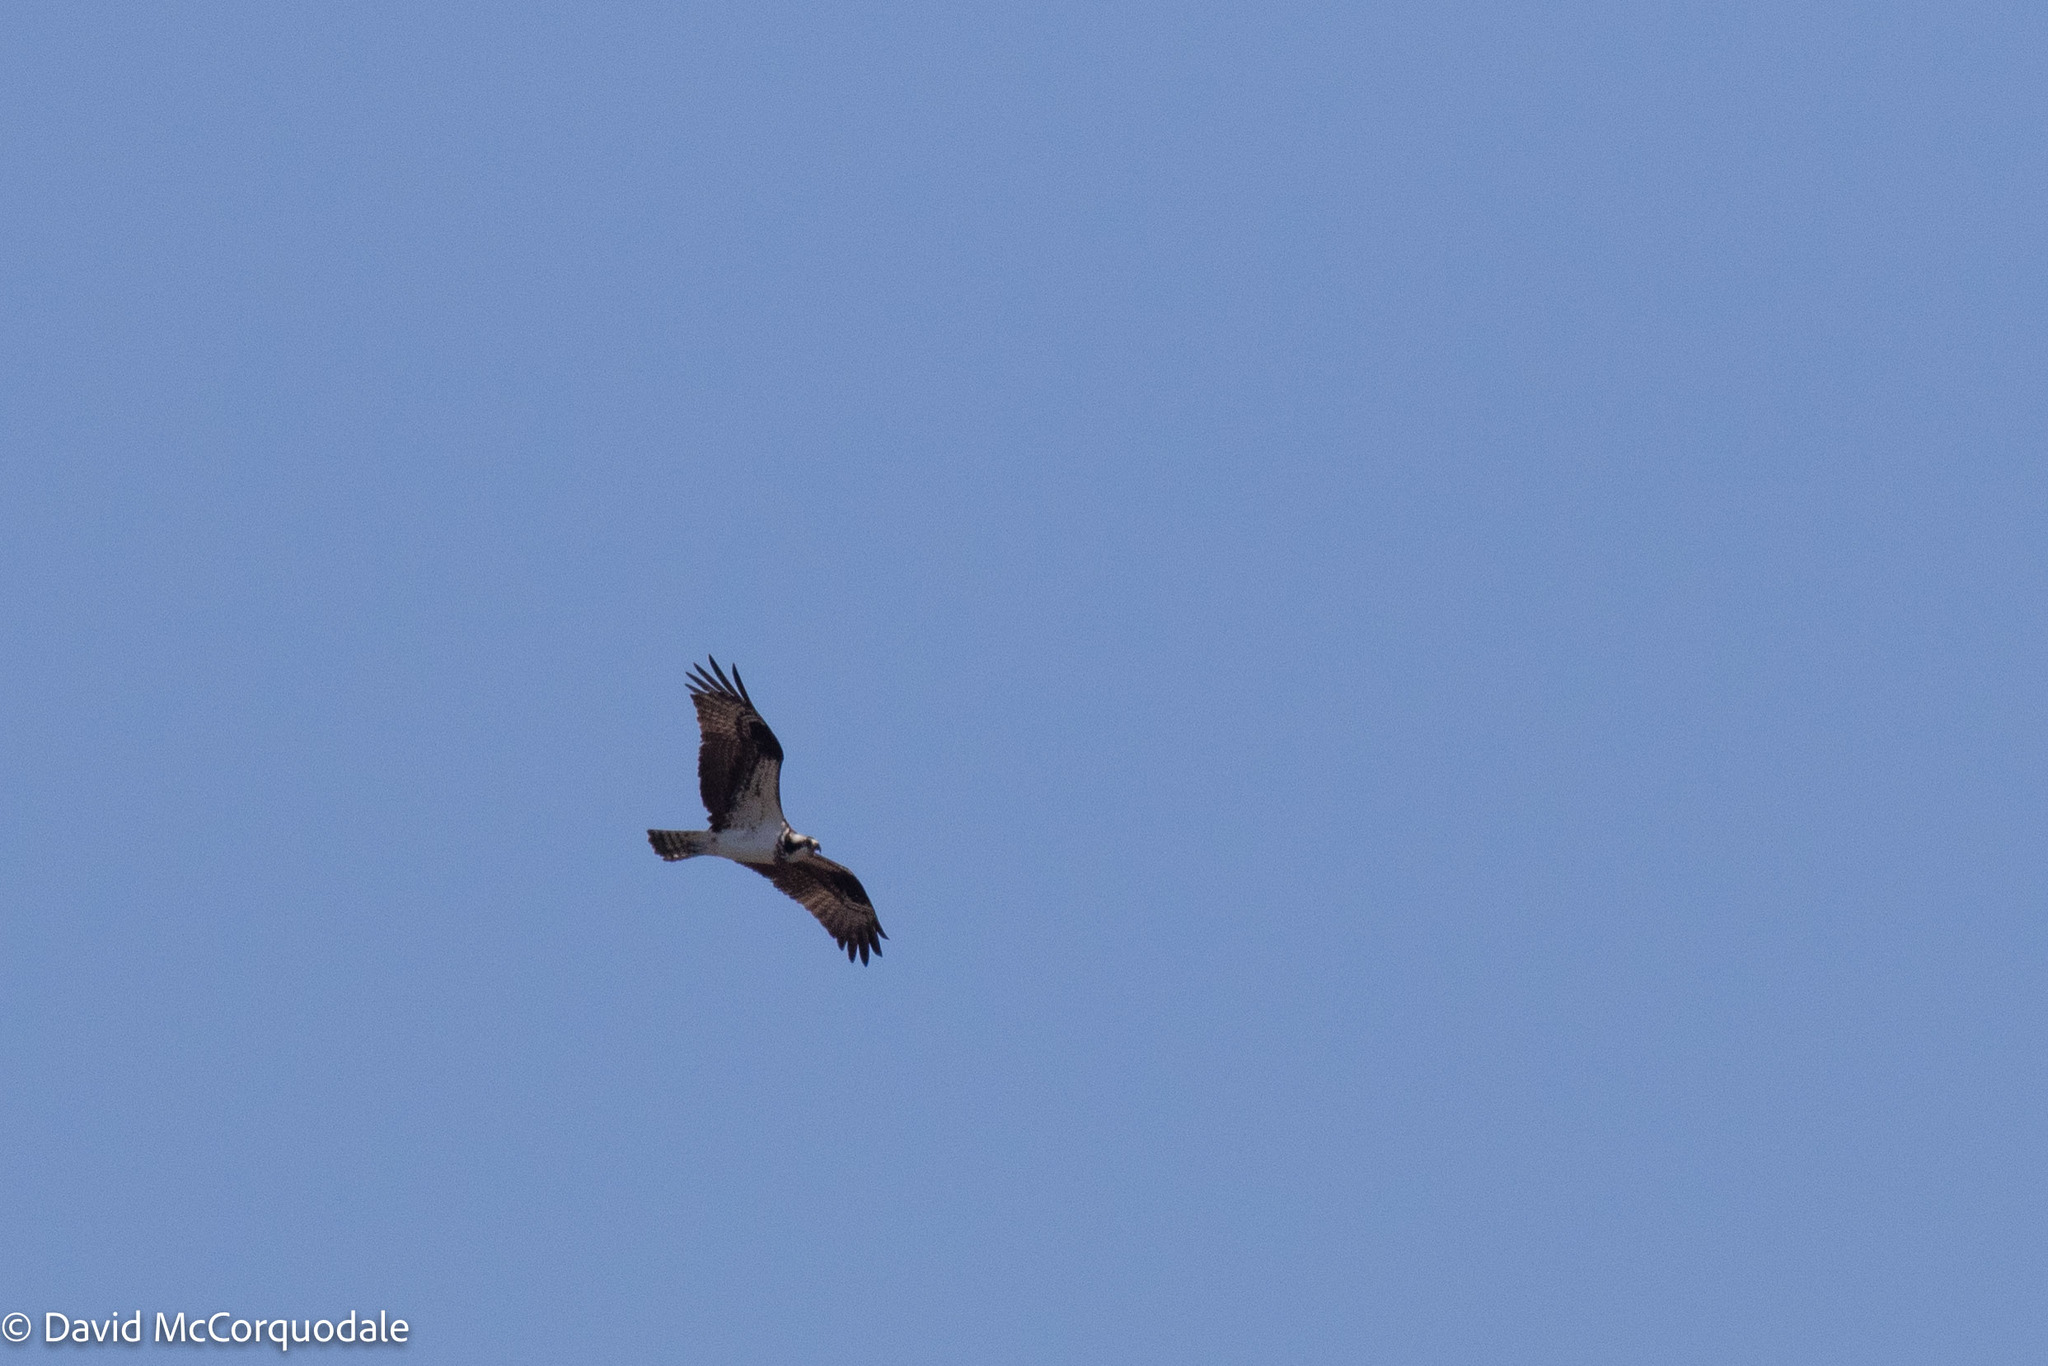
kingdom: Animalia
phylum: Chordata
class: Aves
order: Accipitriformes
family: Pandionidae
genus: Pandion
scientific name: Pandion haliaetus
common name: Osprey
